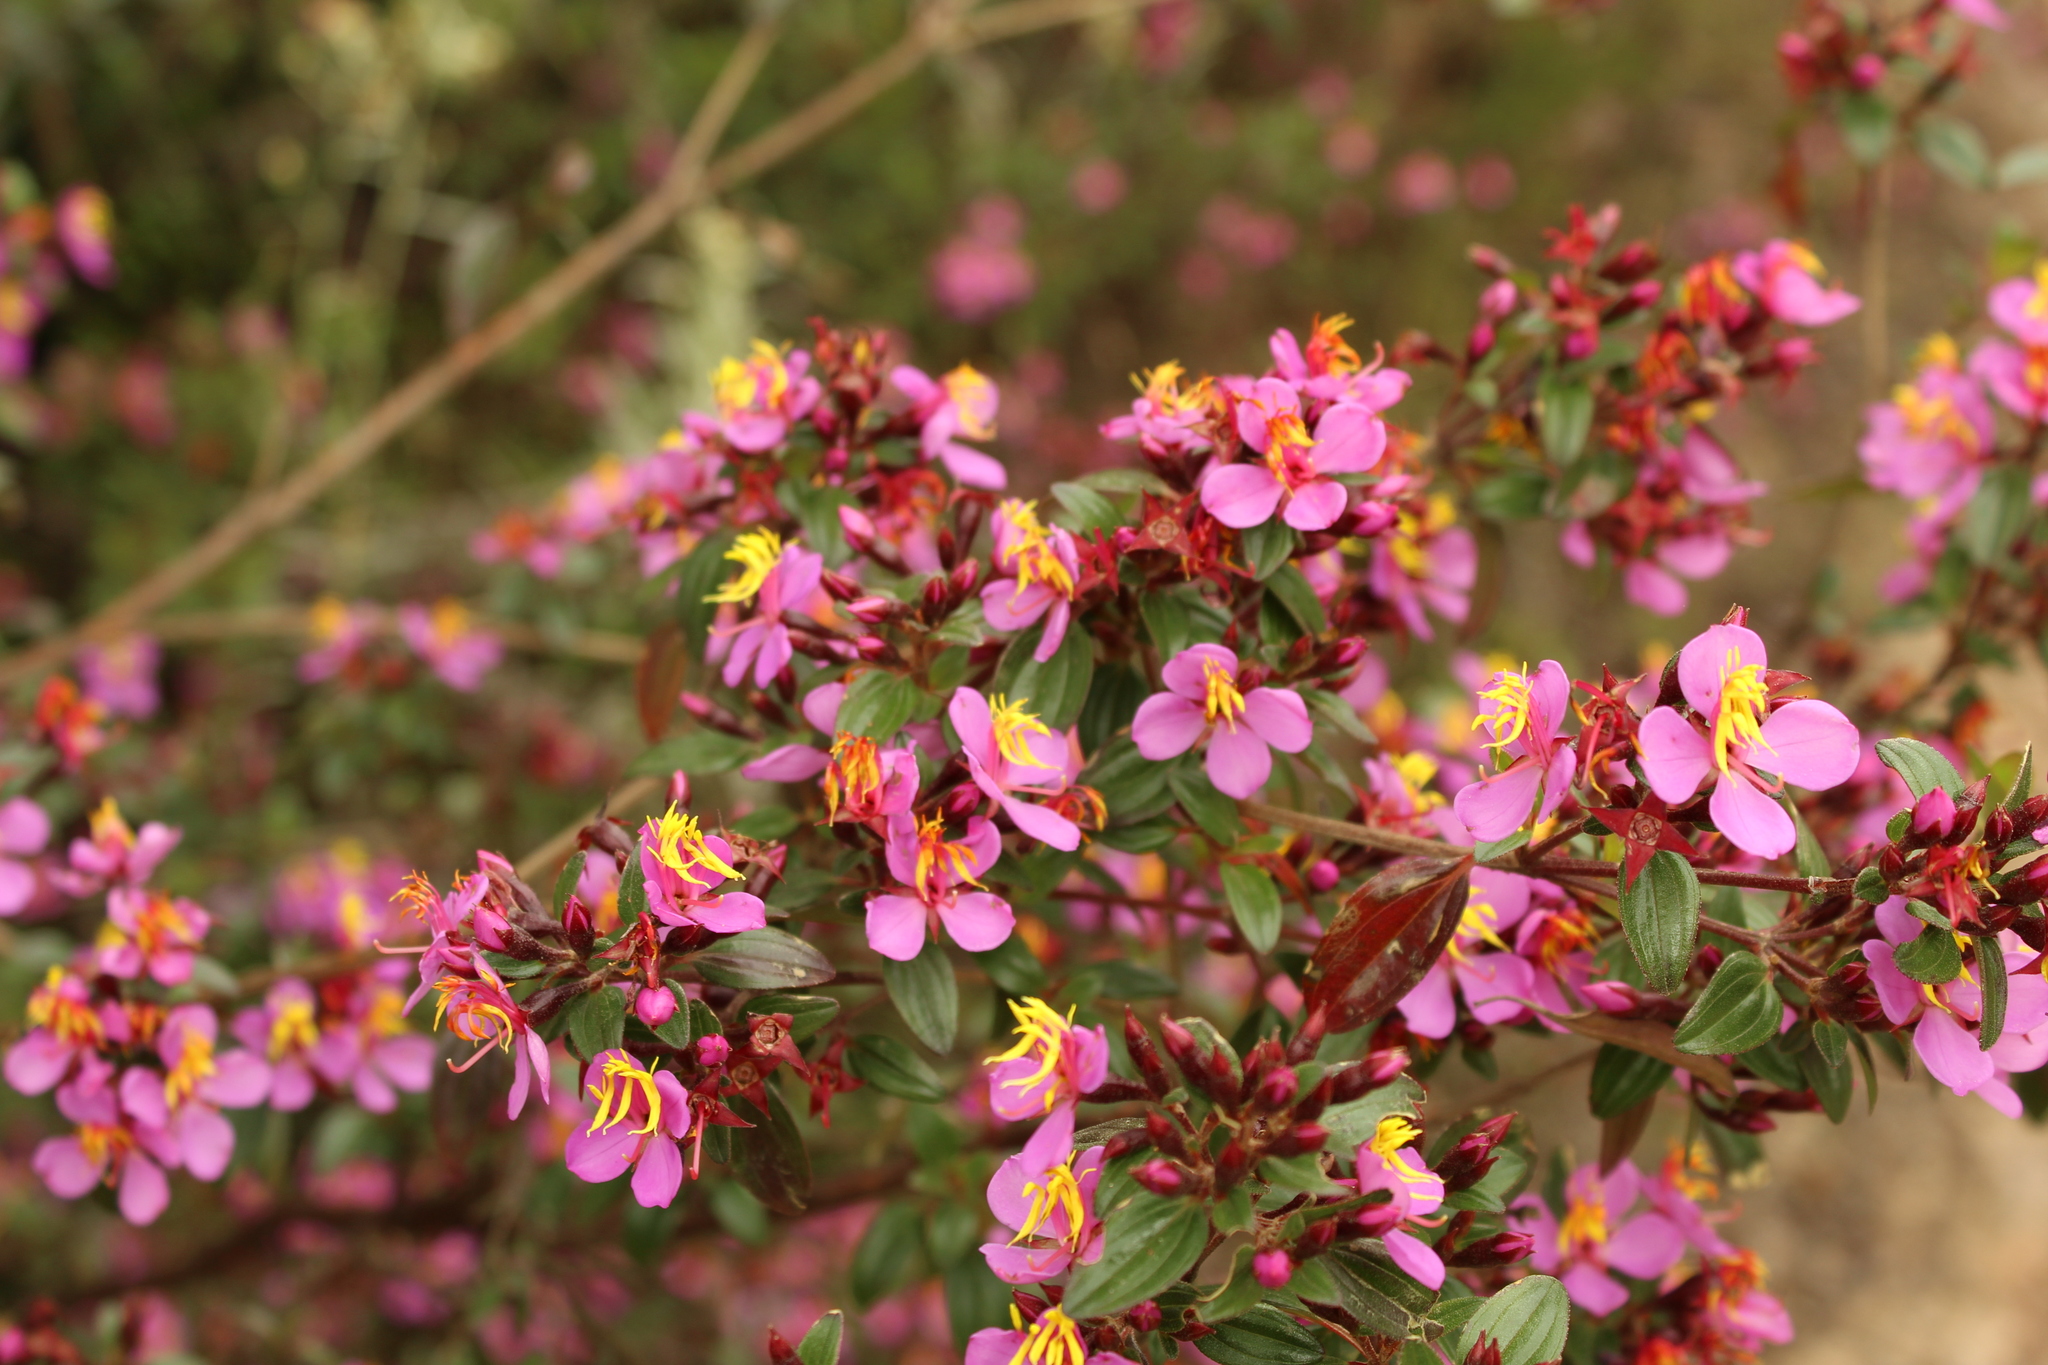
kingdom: Plantae
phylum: Tracheophyta
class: Magnoliopsida
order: Myrtales
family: Melastomataceae
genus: Monochaetum
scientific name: Monochaetum myrtoideum
